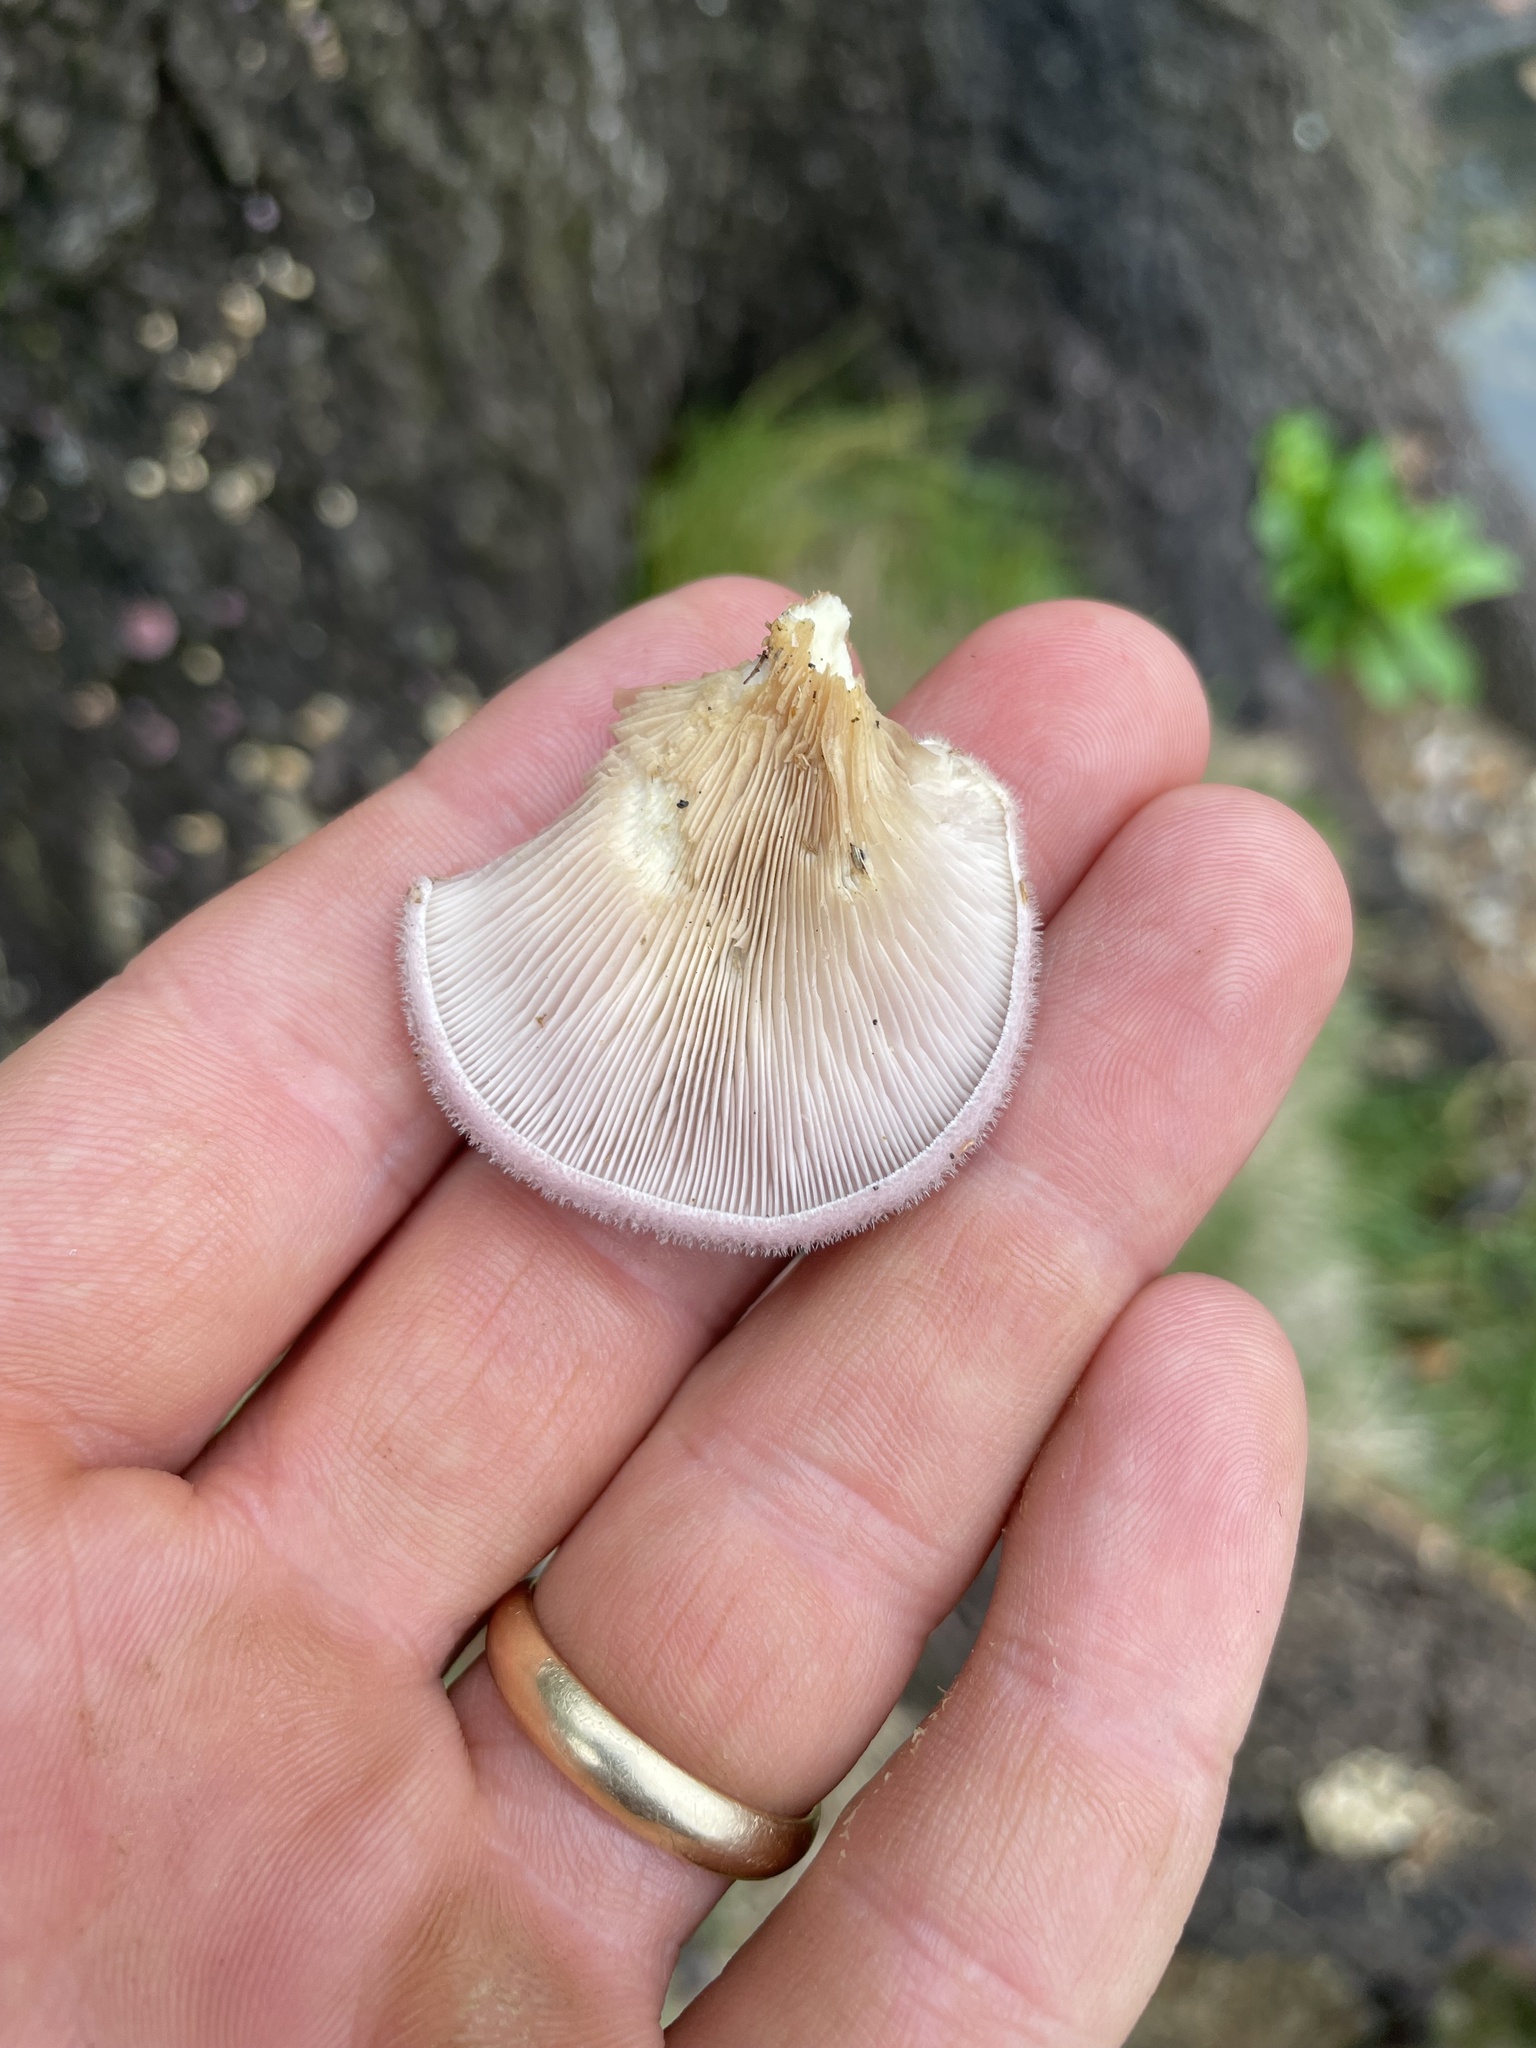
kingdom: Fungi
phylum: Basidiomycota
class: Agaricomycetes
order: Polyporales
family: Panaceae
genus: Panus
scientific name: Panus neostrigosus
